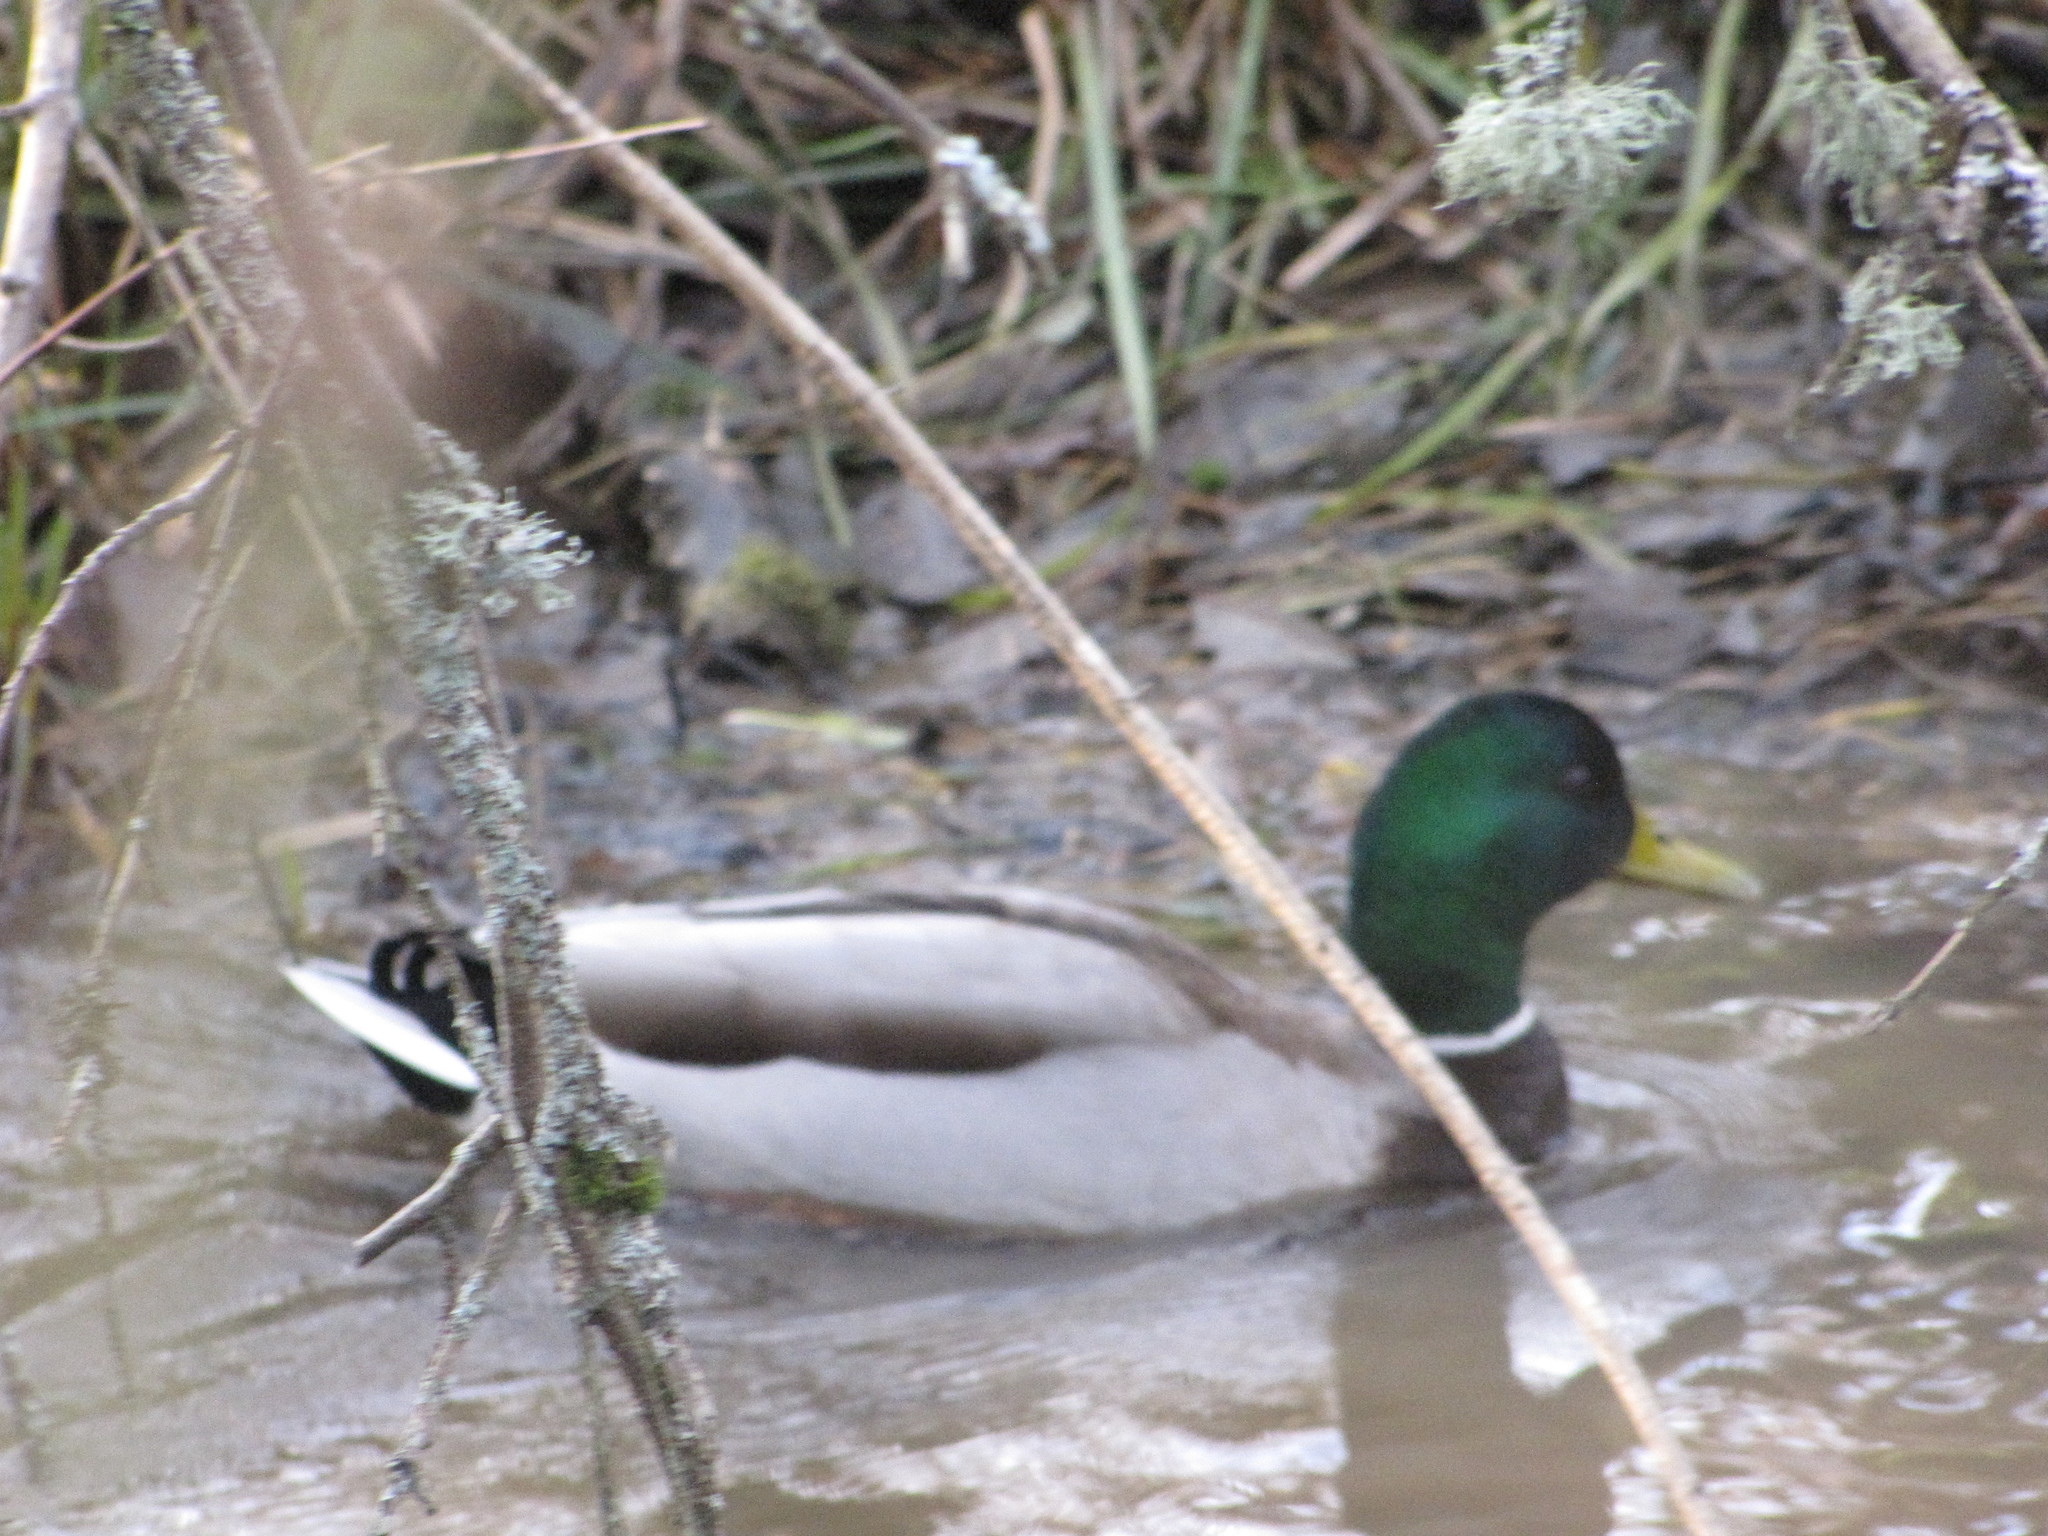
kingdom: Animalia
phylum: Chordata
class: Aves
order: Anseriformes
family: Anatidae
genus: Anas
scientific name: Anas platyrhynchos
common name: Mallard
